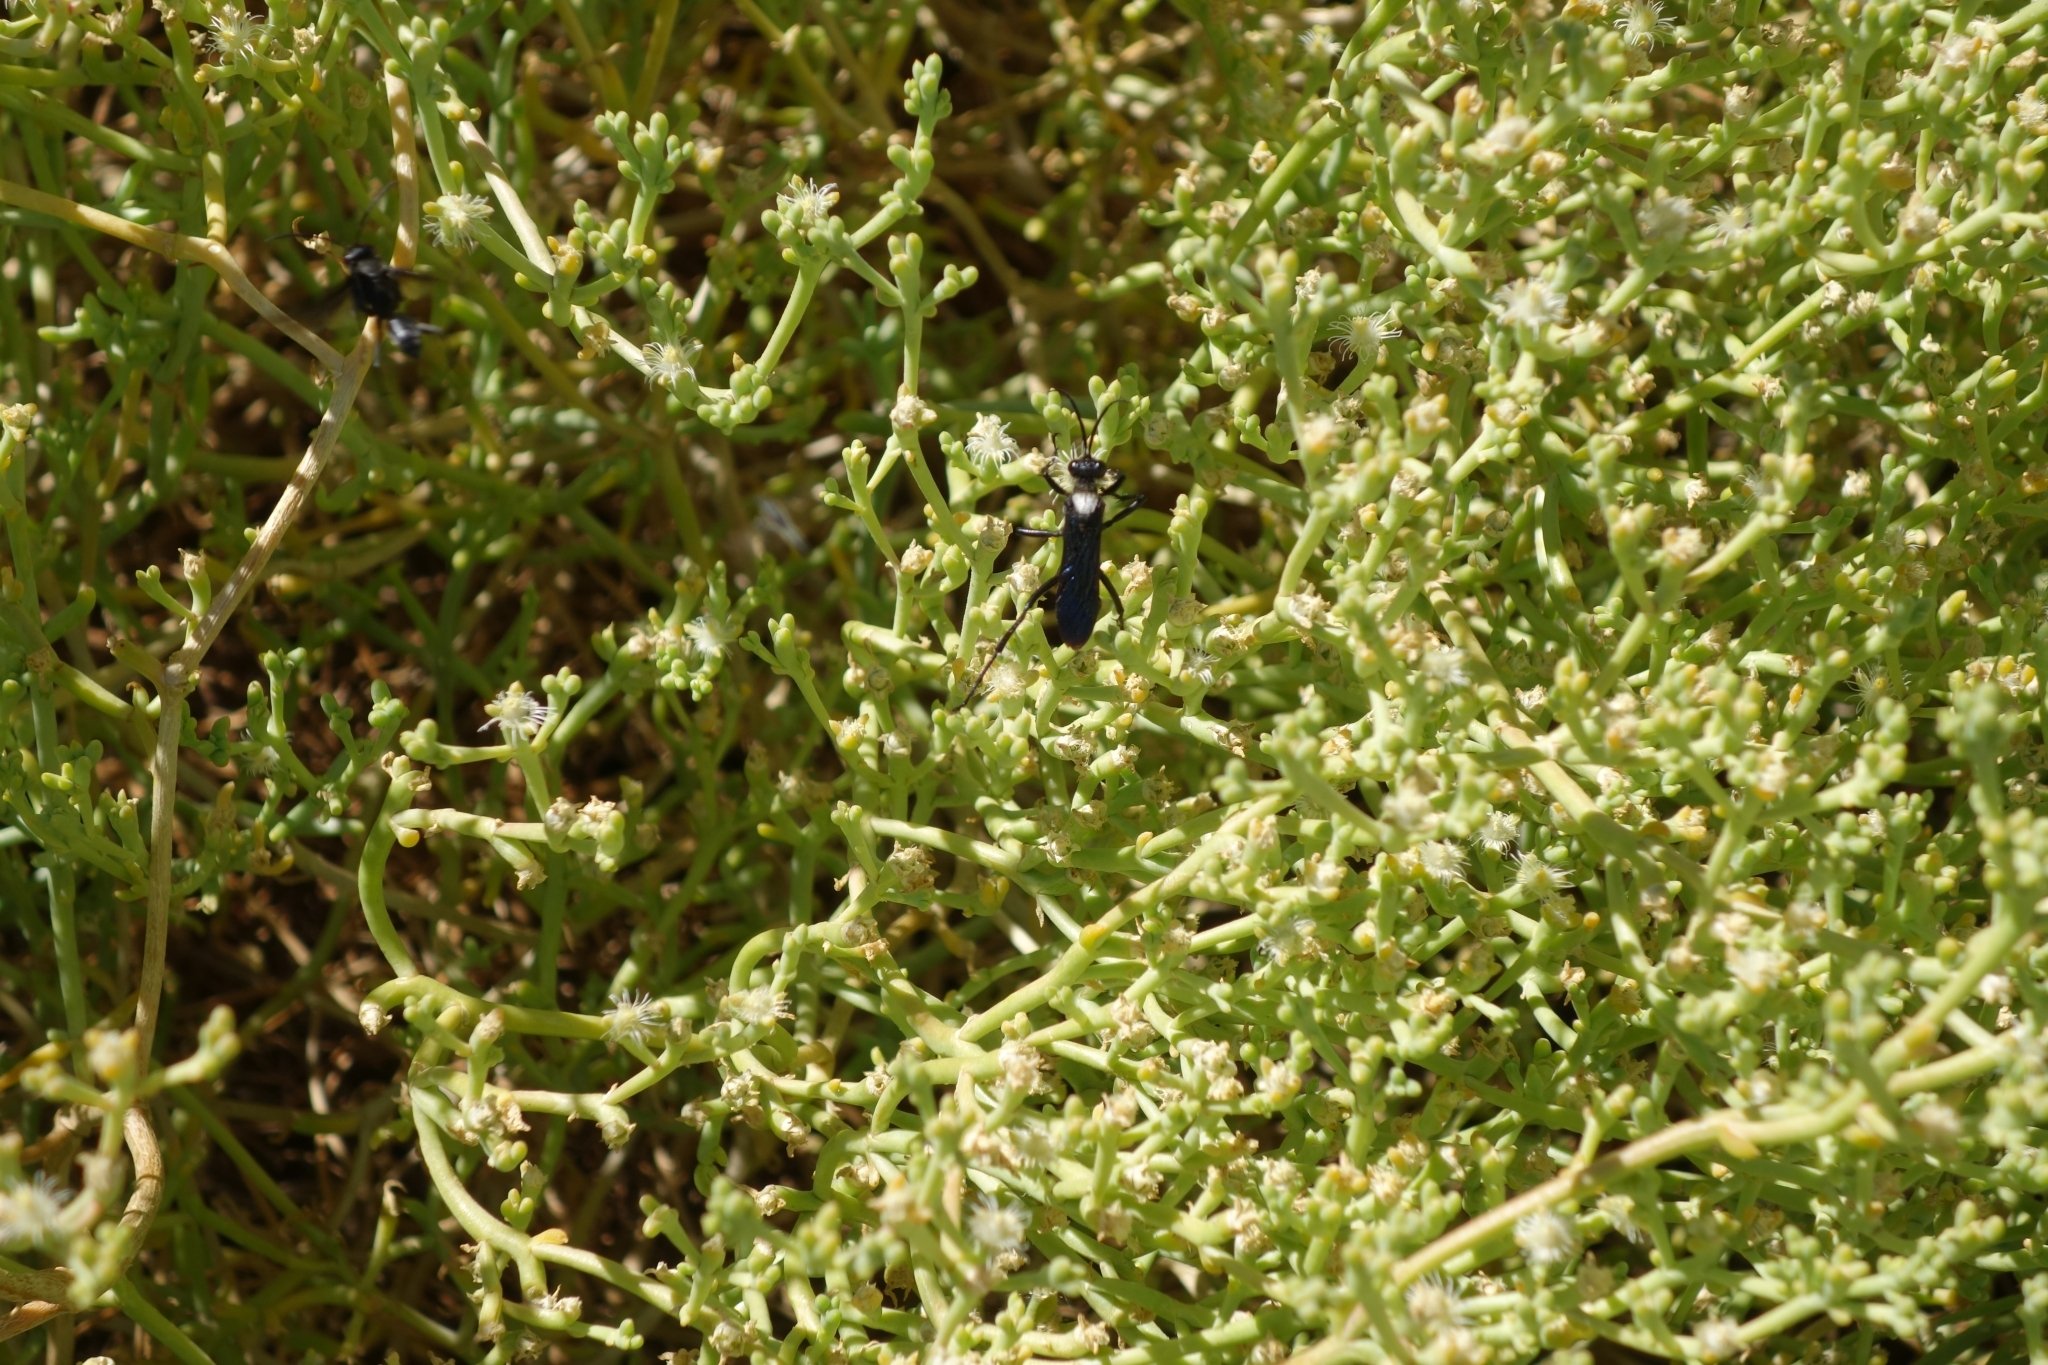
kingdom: Animalia
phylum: Arthropoda
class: Insecta
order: Hymenoptera
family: Sphecidae
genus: Prionyx
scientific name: Prionyx funebris
